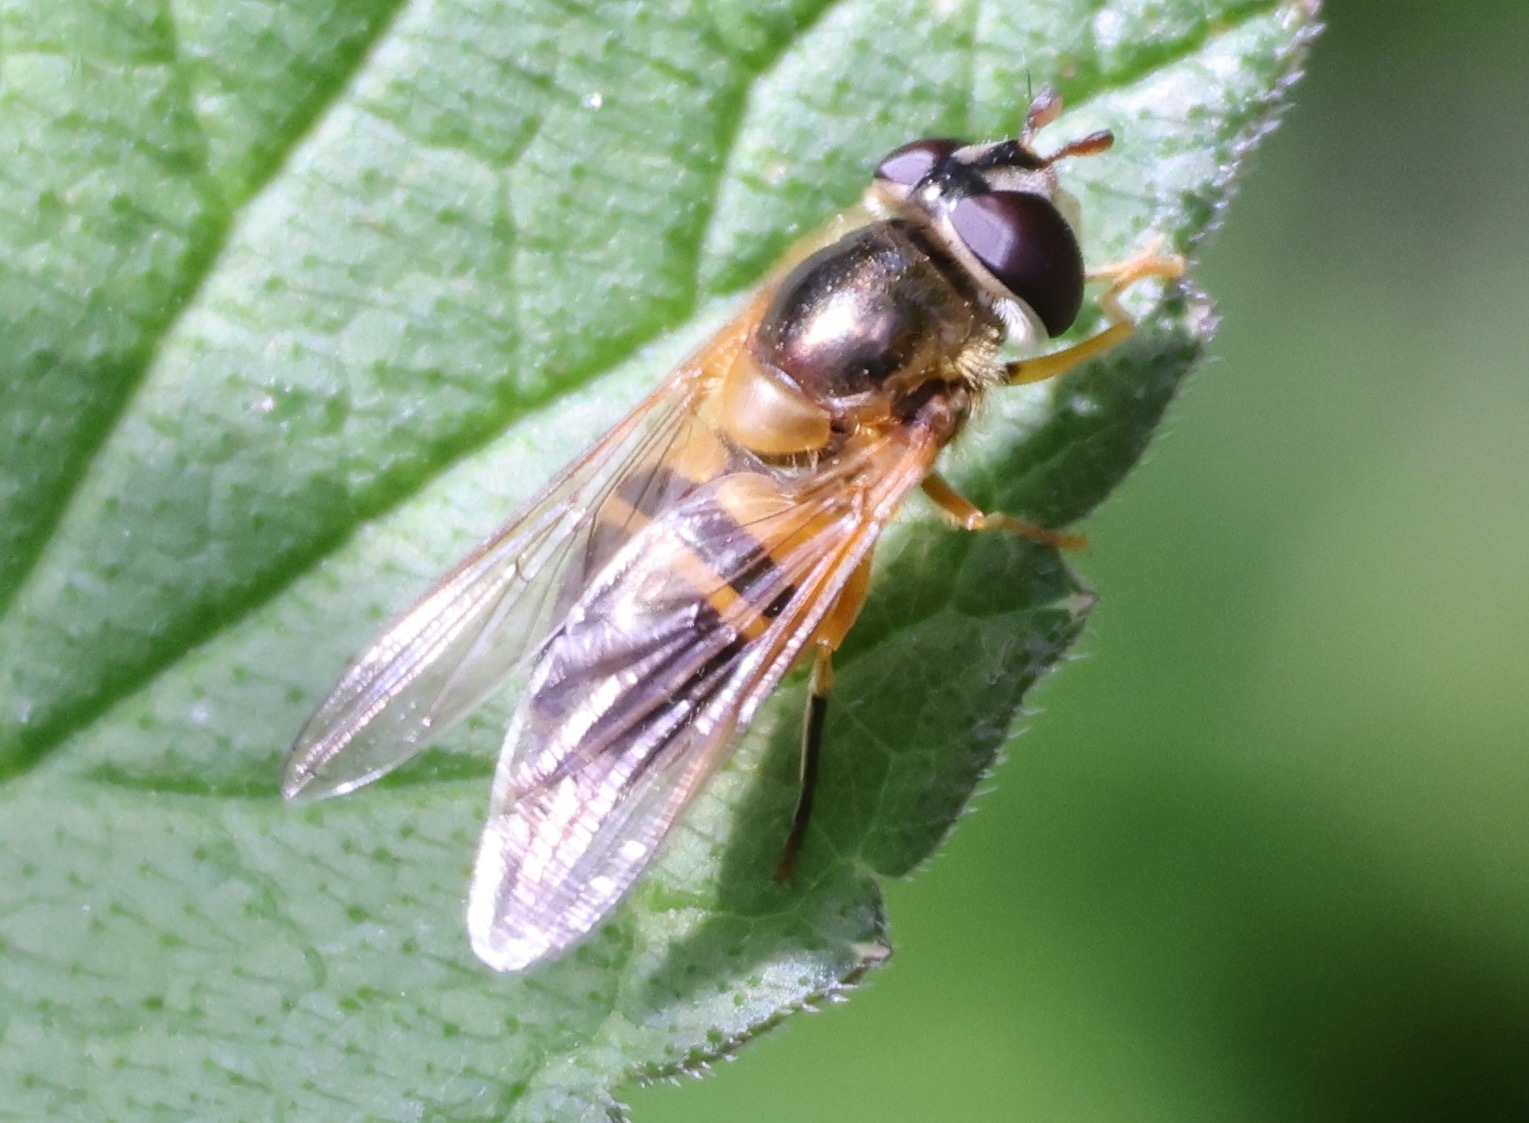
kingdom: Animalia
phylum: Arthropoda
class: Insecta
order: Diptera
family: Syrphidae
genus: Epistrophe
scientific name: Epistrophe eligans
